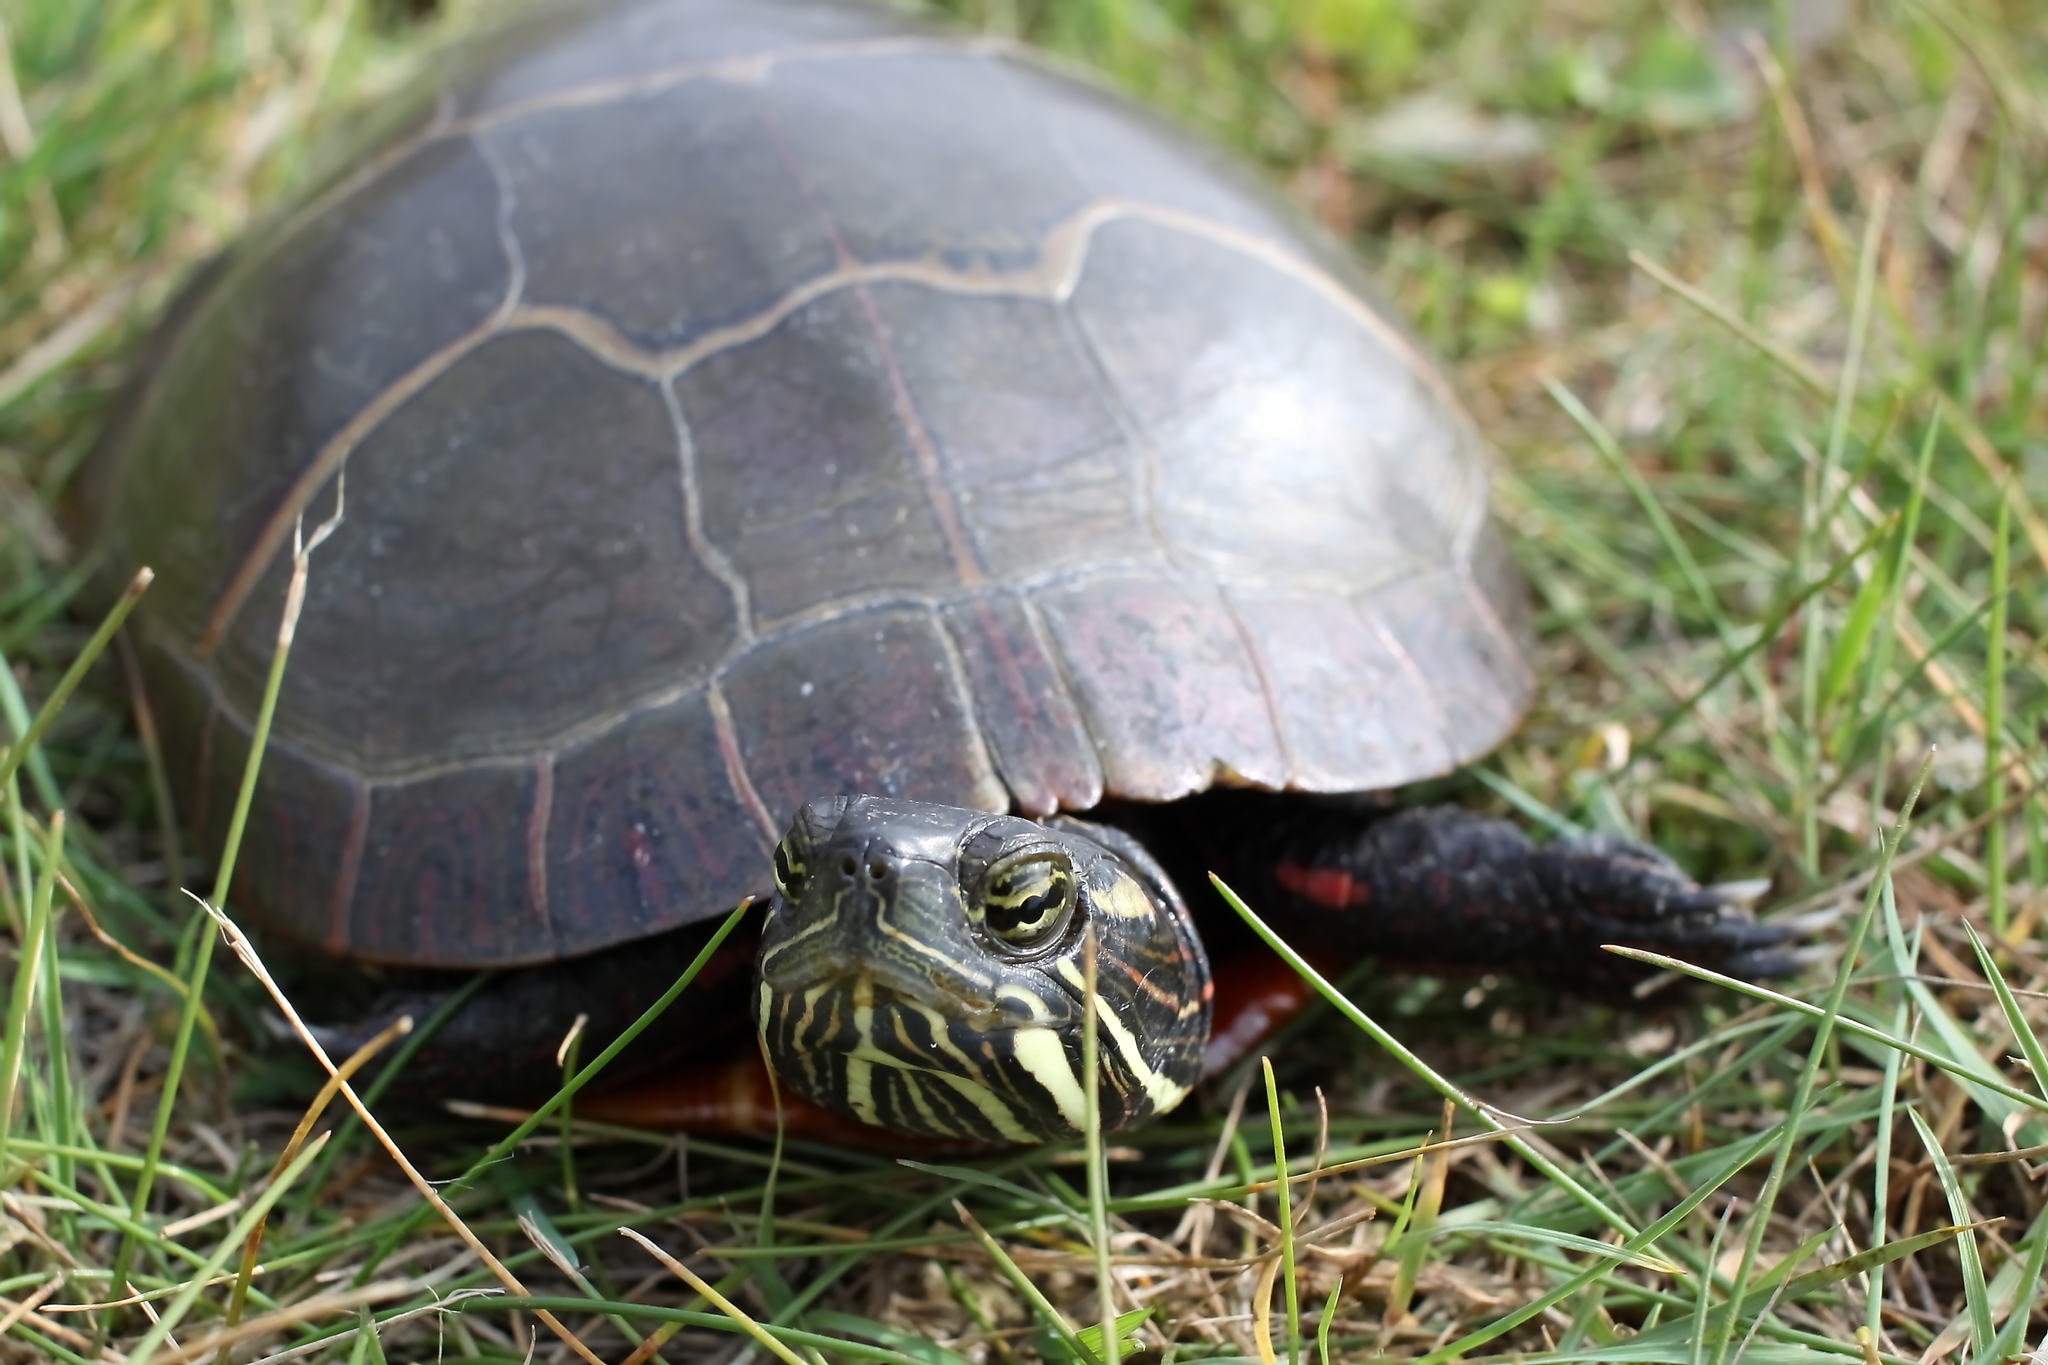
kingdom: Animalia
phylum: Chordata
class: Testudines
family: Emydidae
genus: Chrysemys
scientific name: Chrysemys picta
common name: Painted turtle
